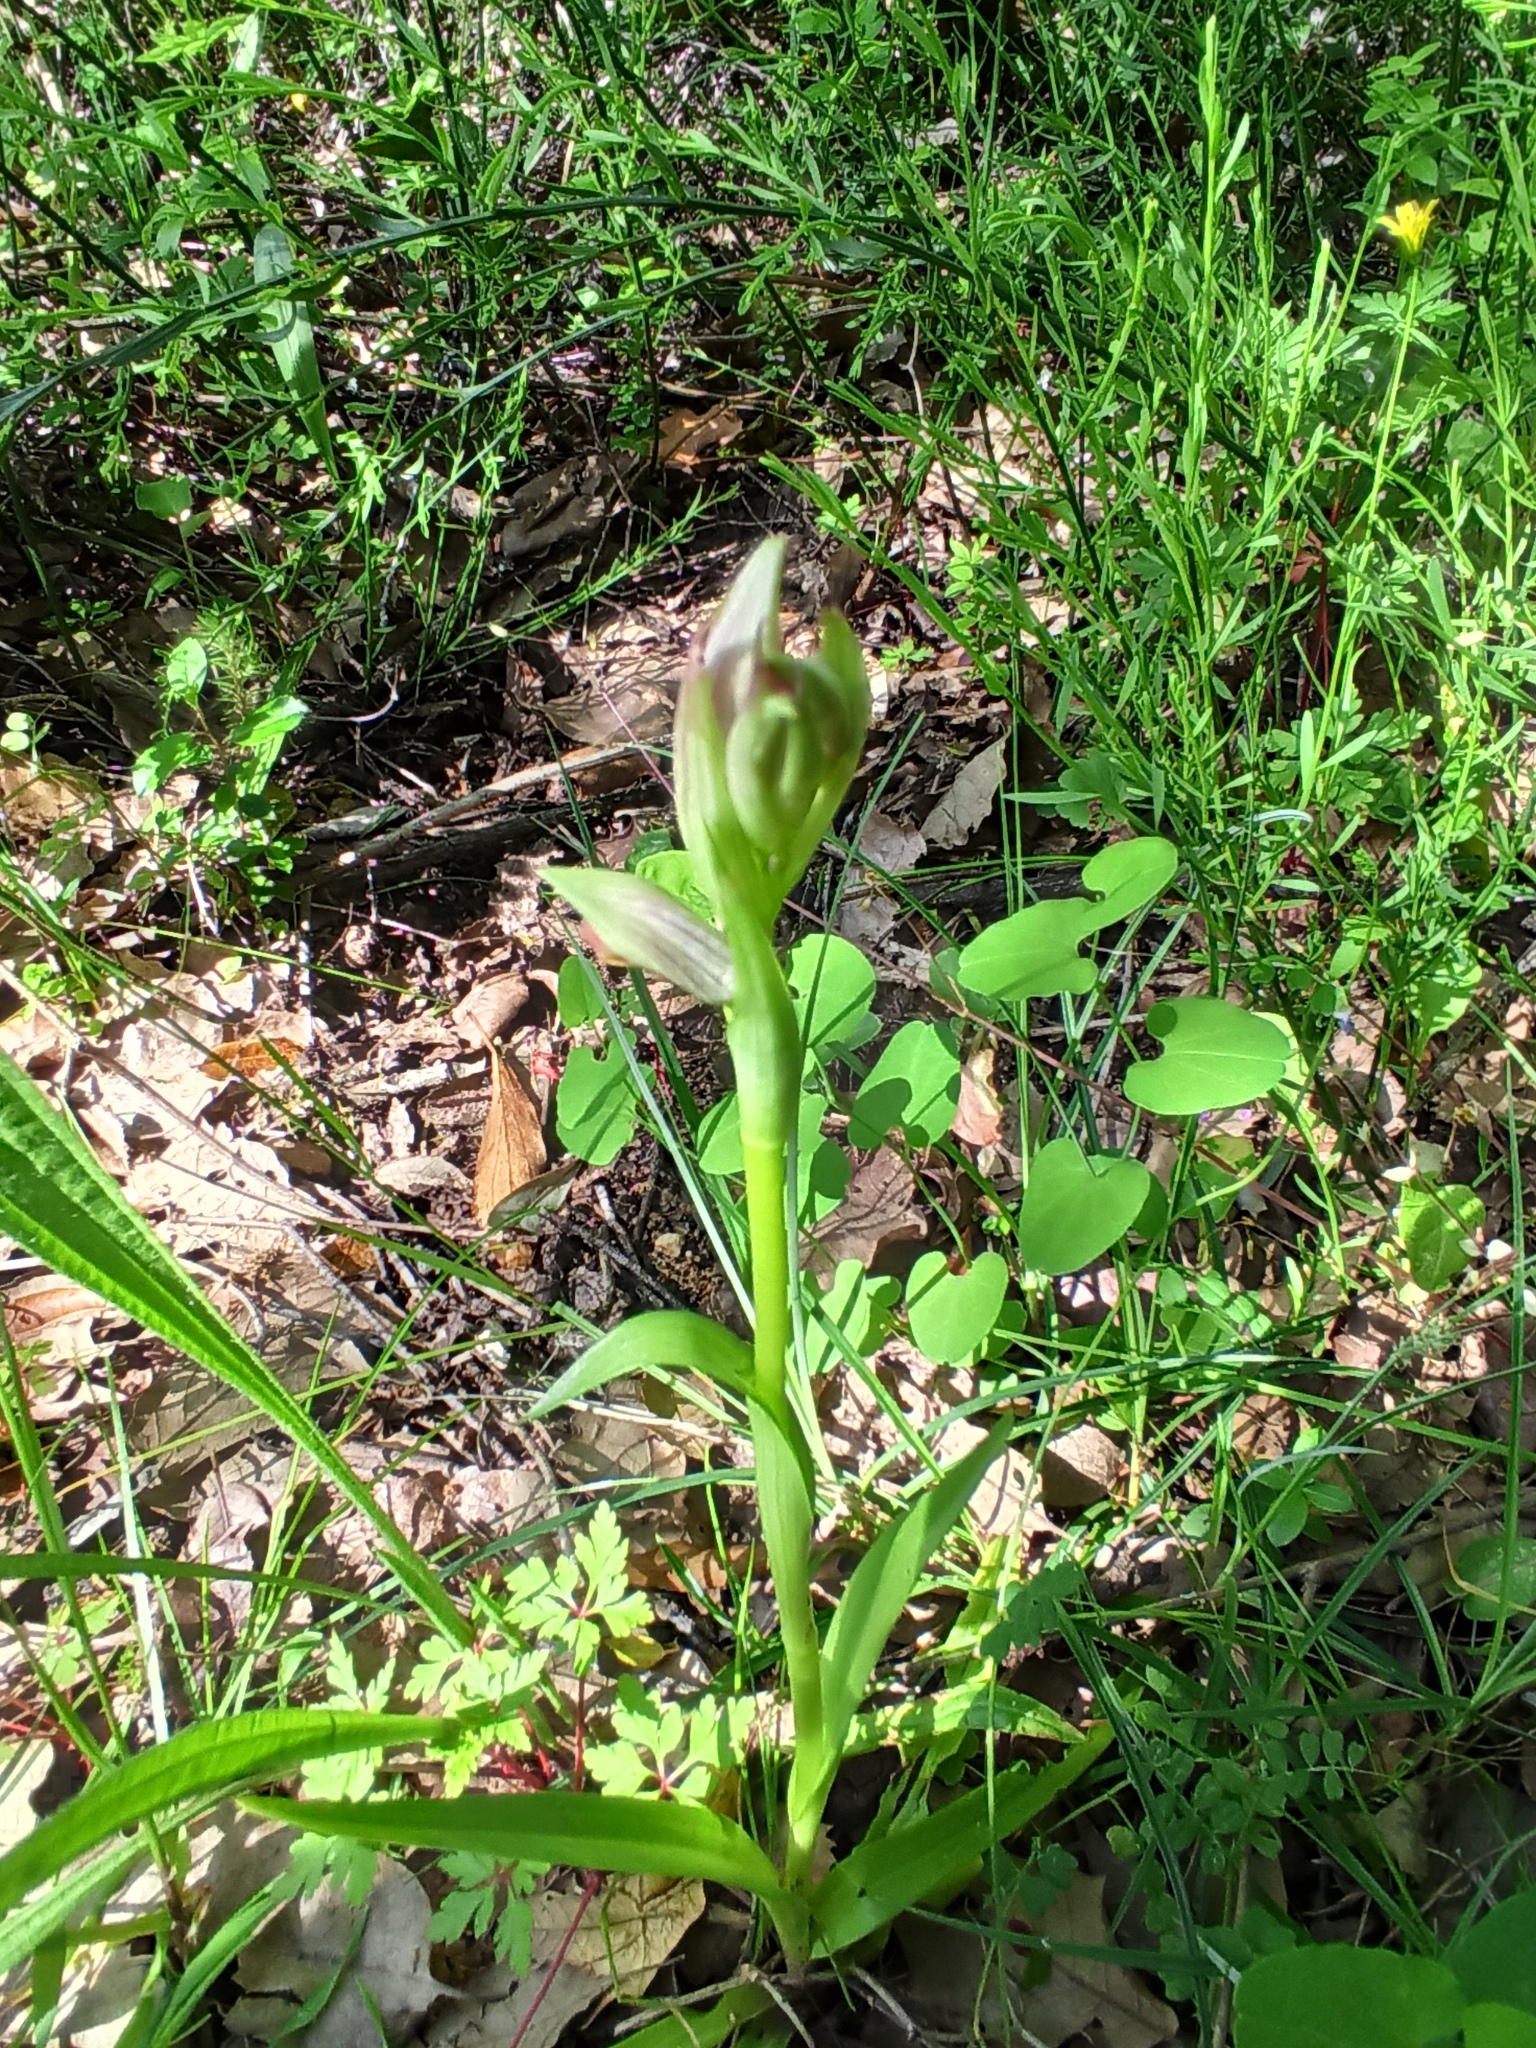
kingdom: Plantae
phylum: Tracheophyta
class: Liliopsida
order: Asparagales
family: Orchidaceae
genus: Serapias
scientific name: Serapias parviflora
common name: Small-flowered tongue-orchid
